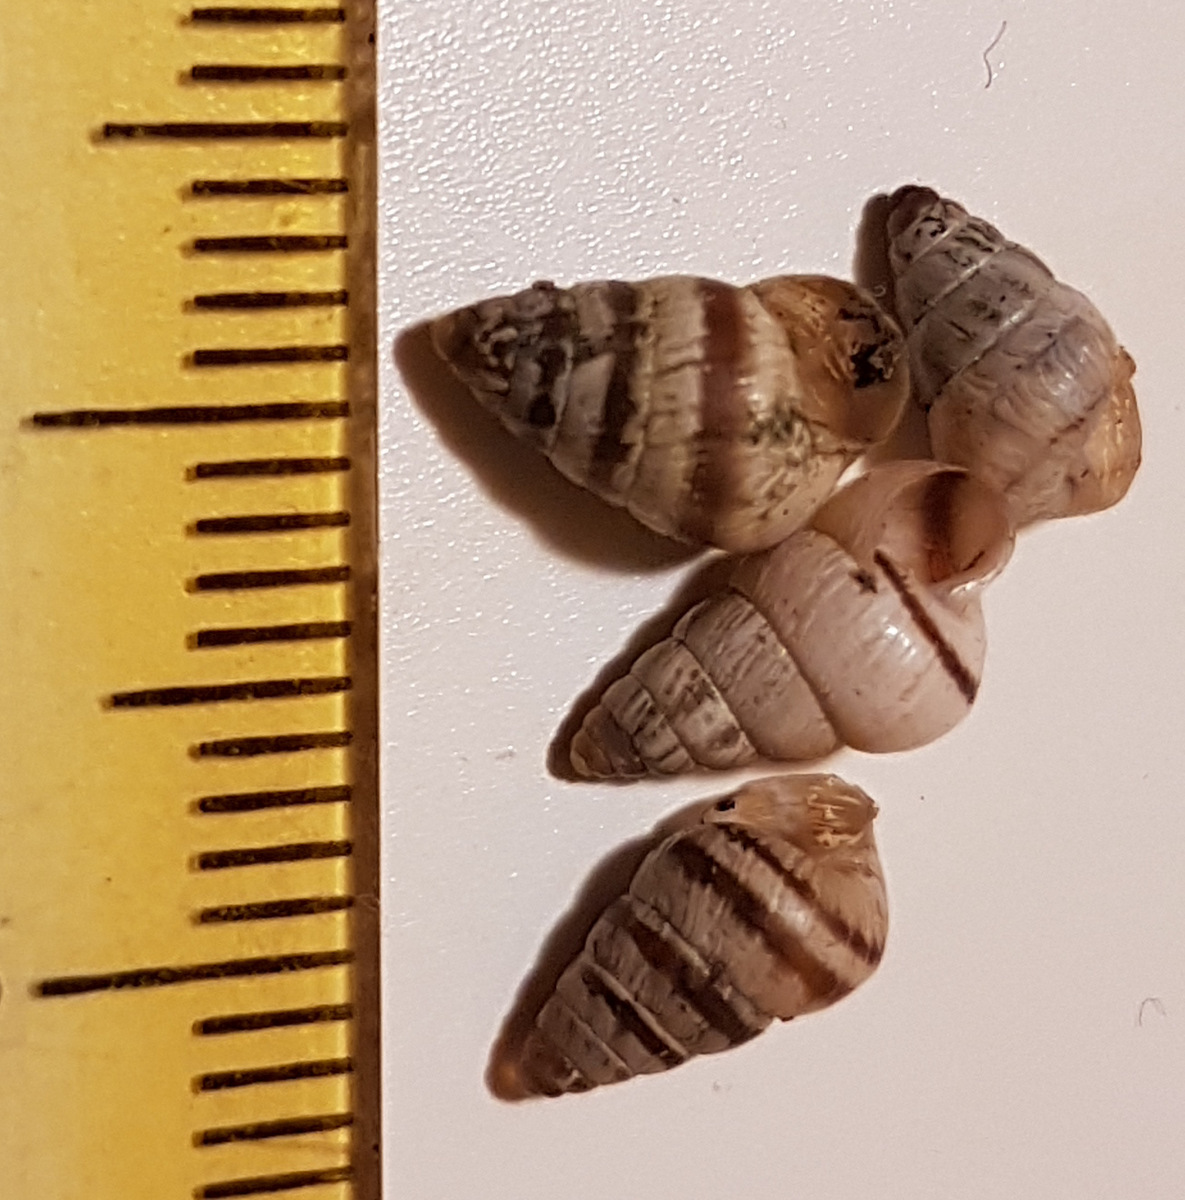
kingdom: Animalia
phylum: Mollusca
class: Gastropoda
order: Stylommatophora
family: Geomitridae
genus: Cochlicella
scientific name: Cochlicella barbara
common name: Potbellied helicellid
